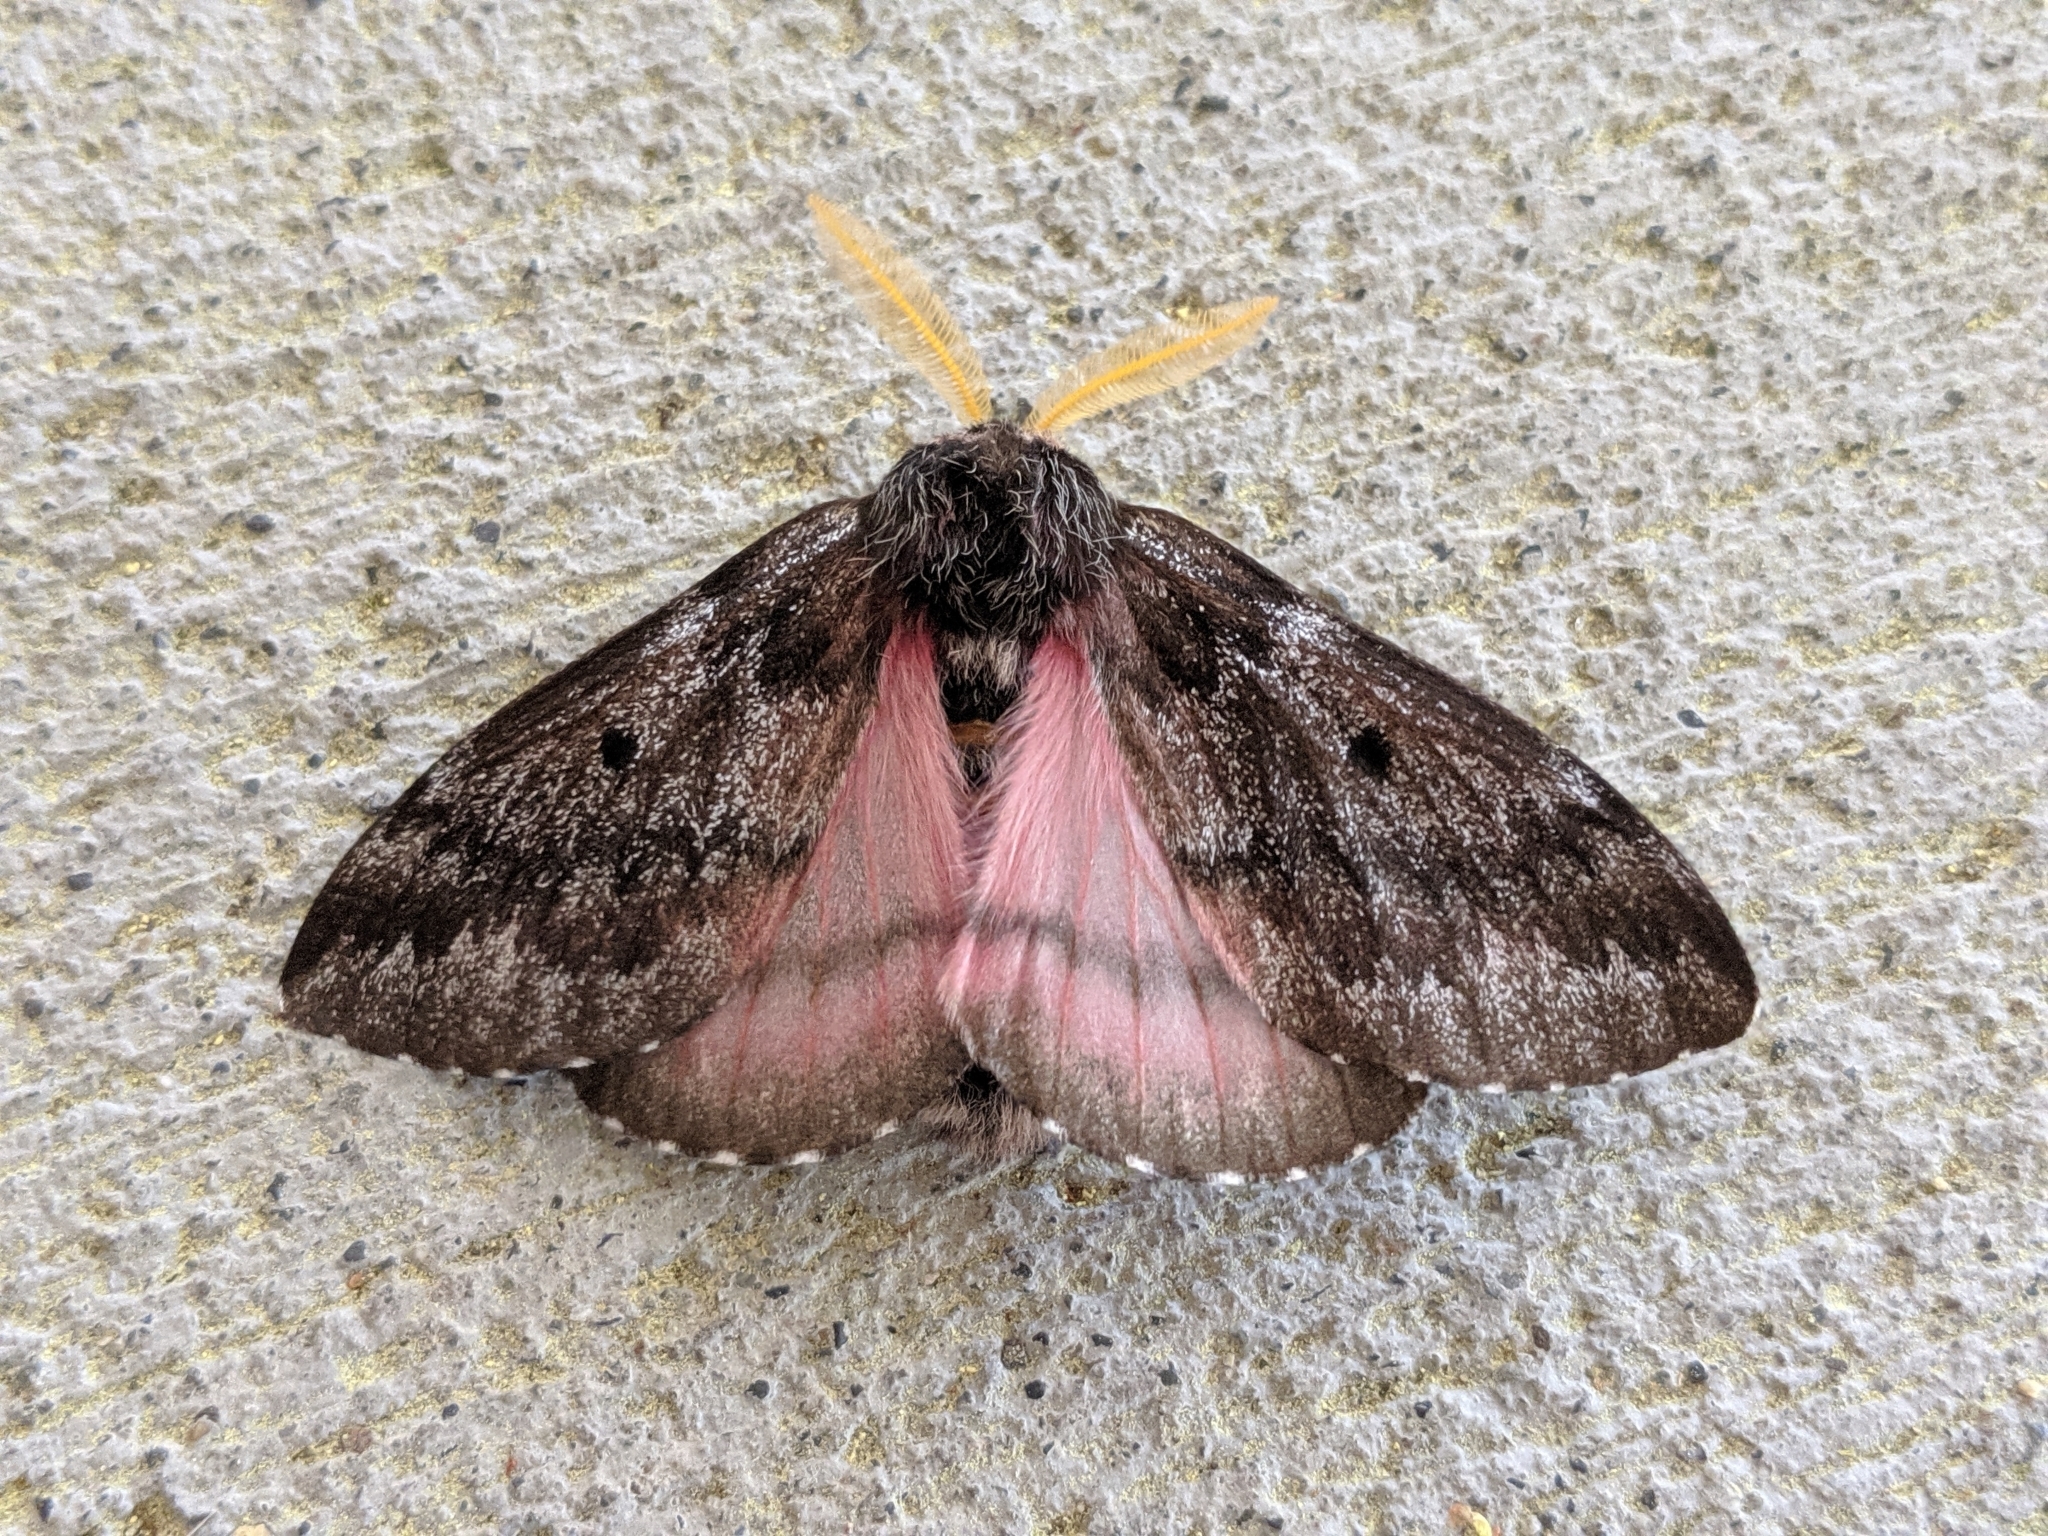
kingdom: Animalia
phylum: Arthropoda
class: Insecta
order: Lepidoptera
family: Saturniidae
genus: Coloradia
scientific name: Coloradia pandora
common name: Pandora pinemoth
